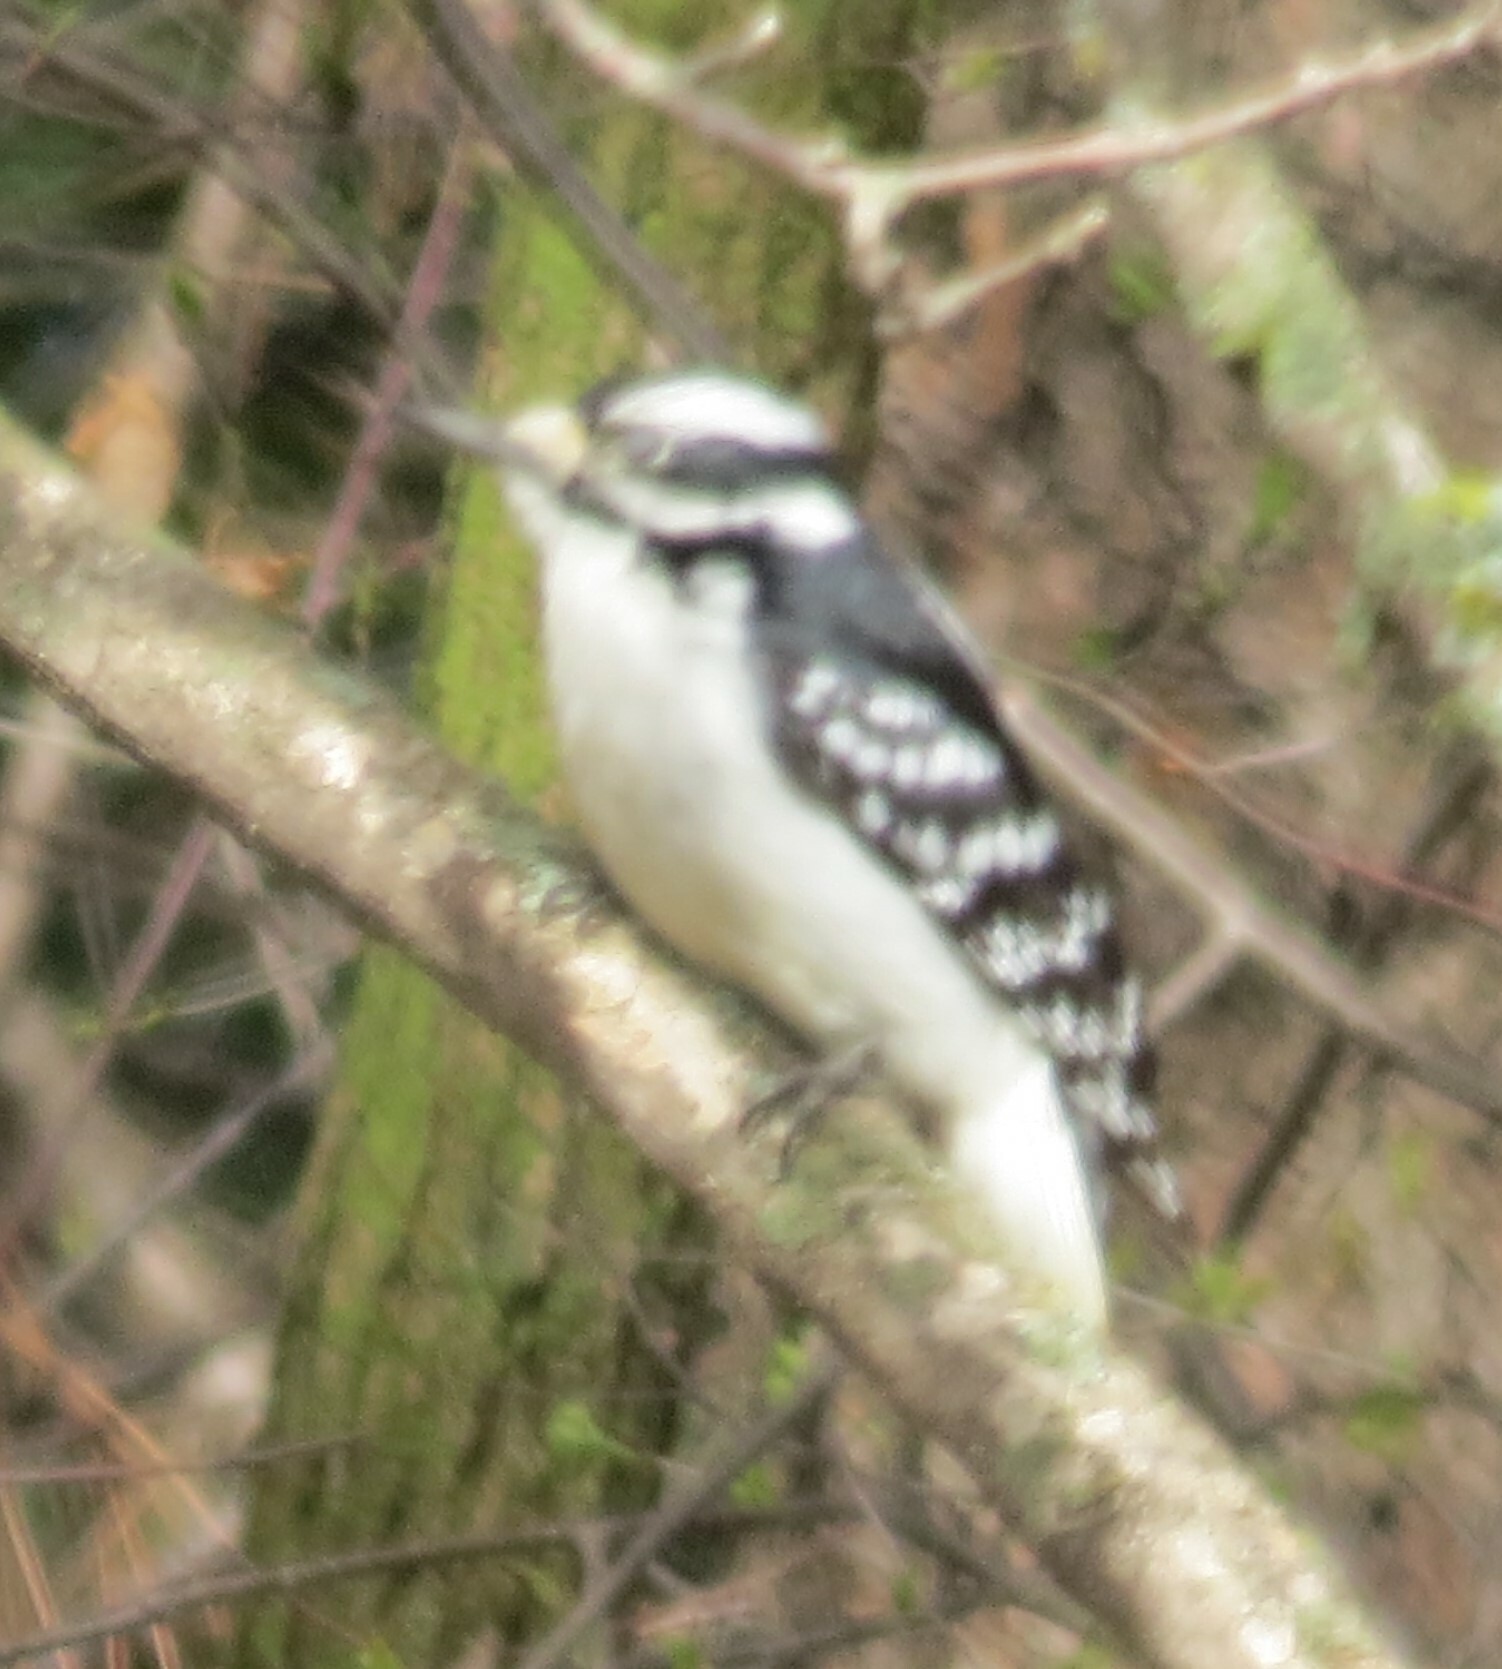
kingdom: Animalia
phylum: Chordata
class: Aves
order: Piciformes
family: Picidae
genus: Dryobates
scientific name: Dryobates pubescens
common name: Downy woodpecker
